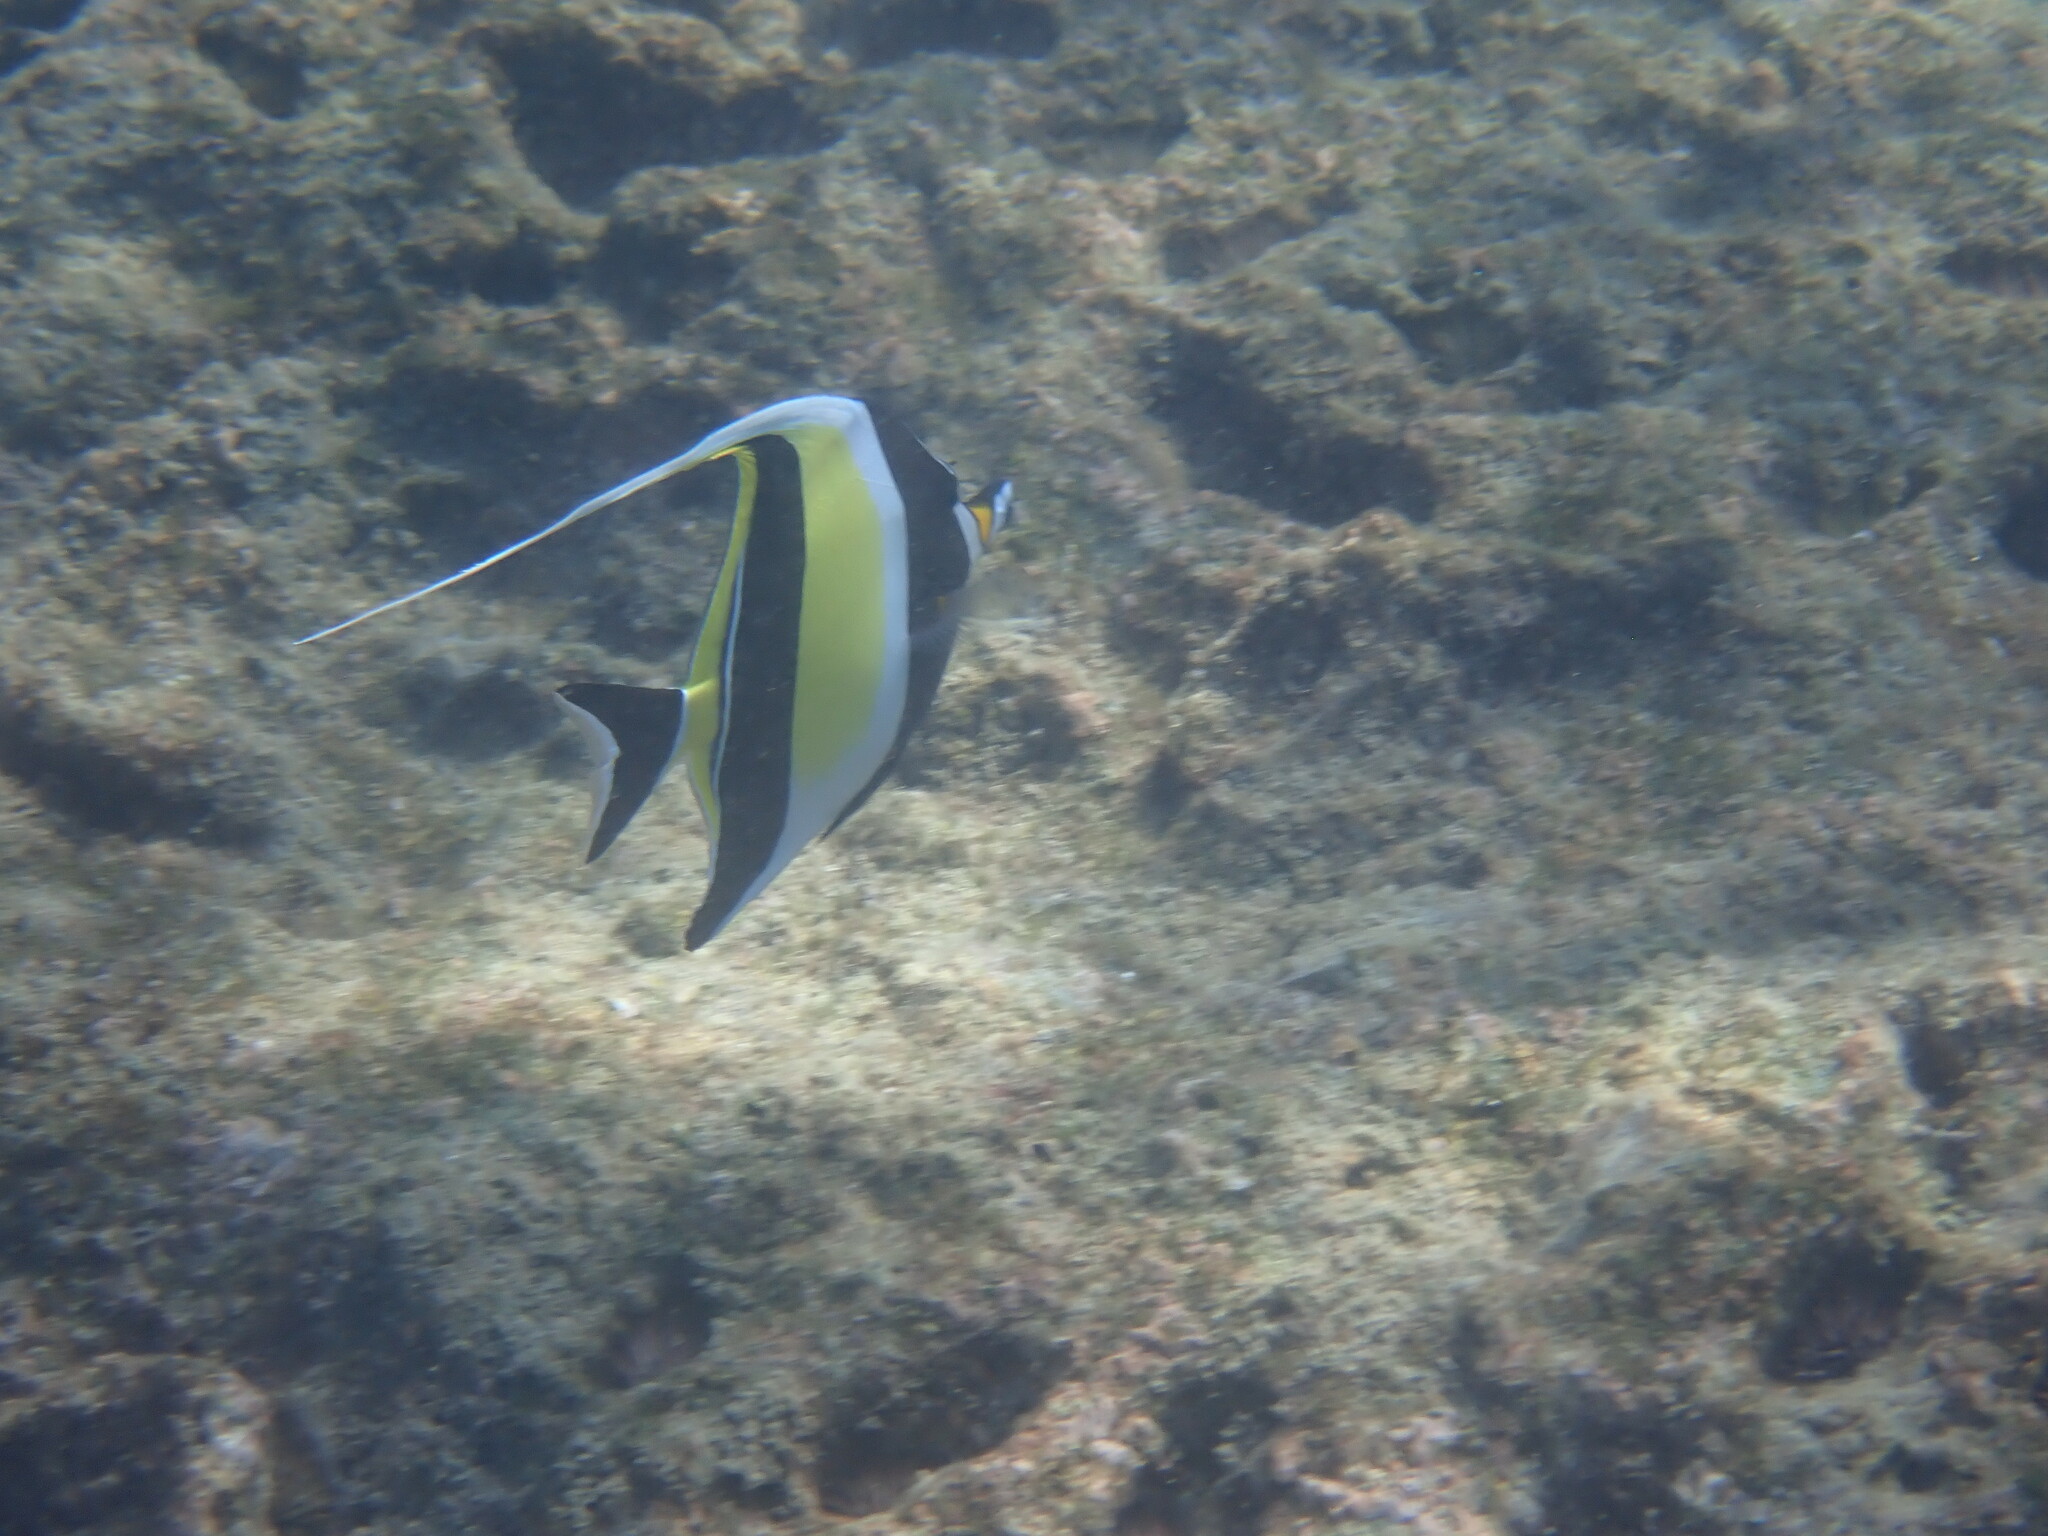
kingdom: Animalia
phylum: Chordata
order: Perciformes
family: Zanclidae
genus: Zanclus
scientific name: Zanclus cornutus
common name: Moorish idol
